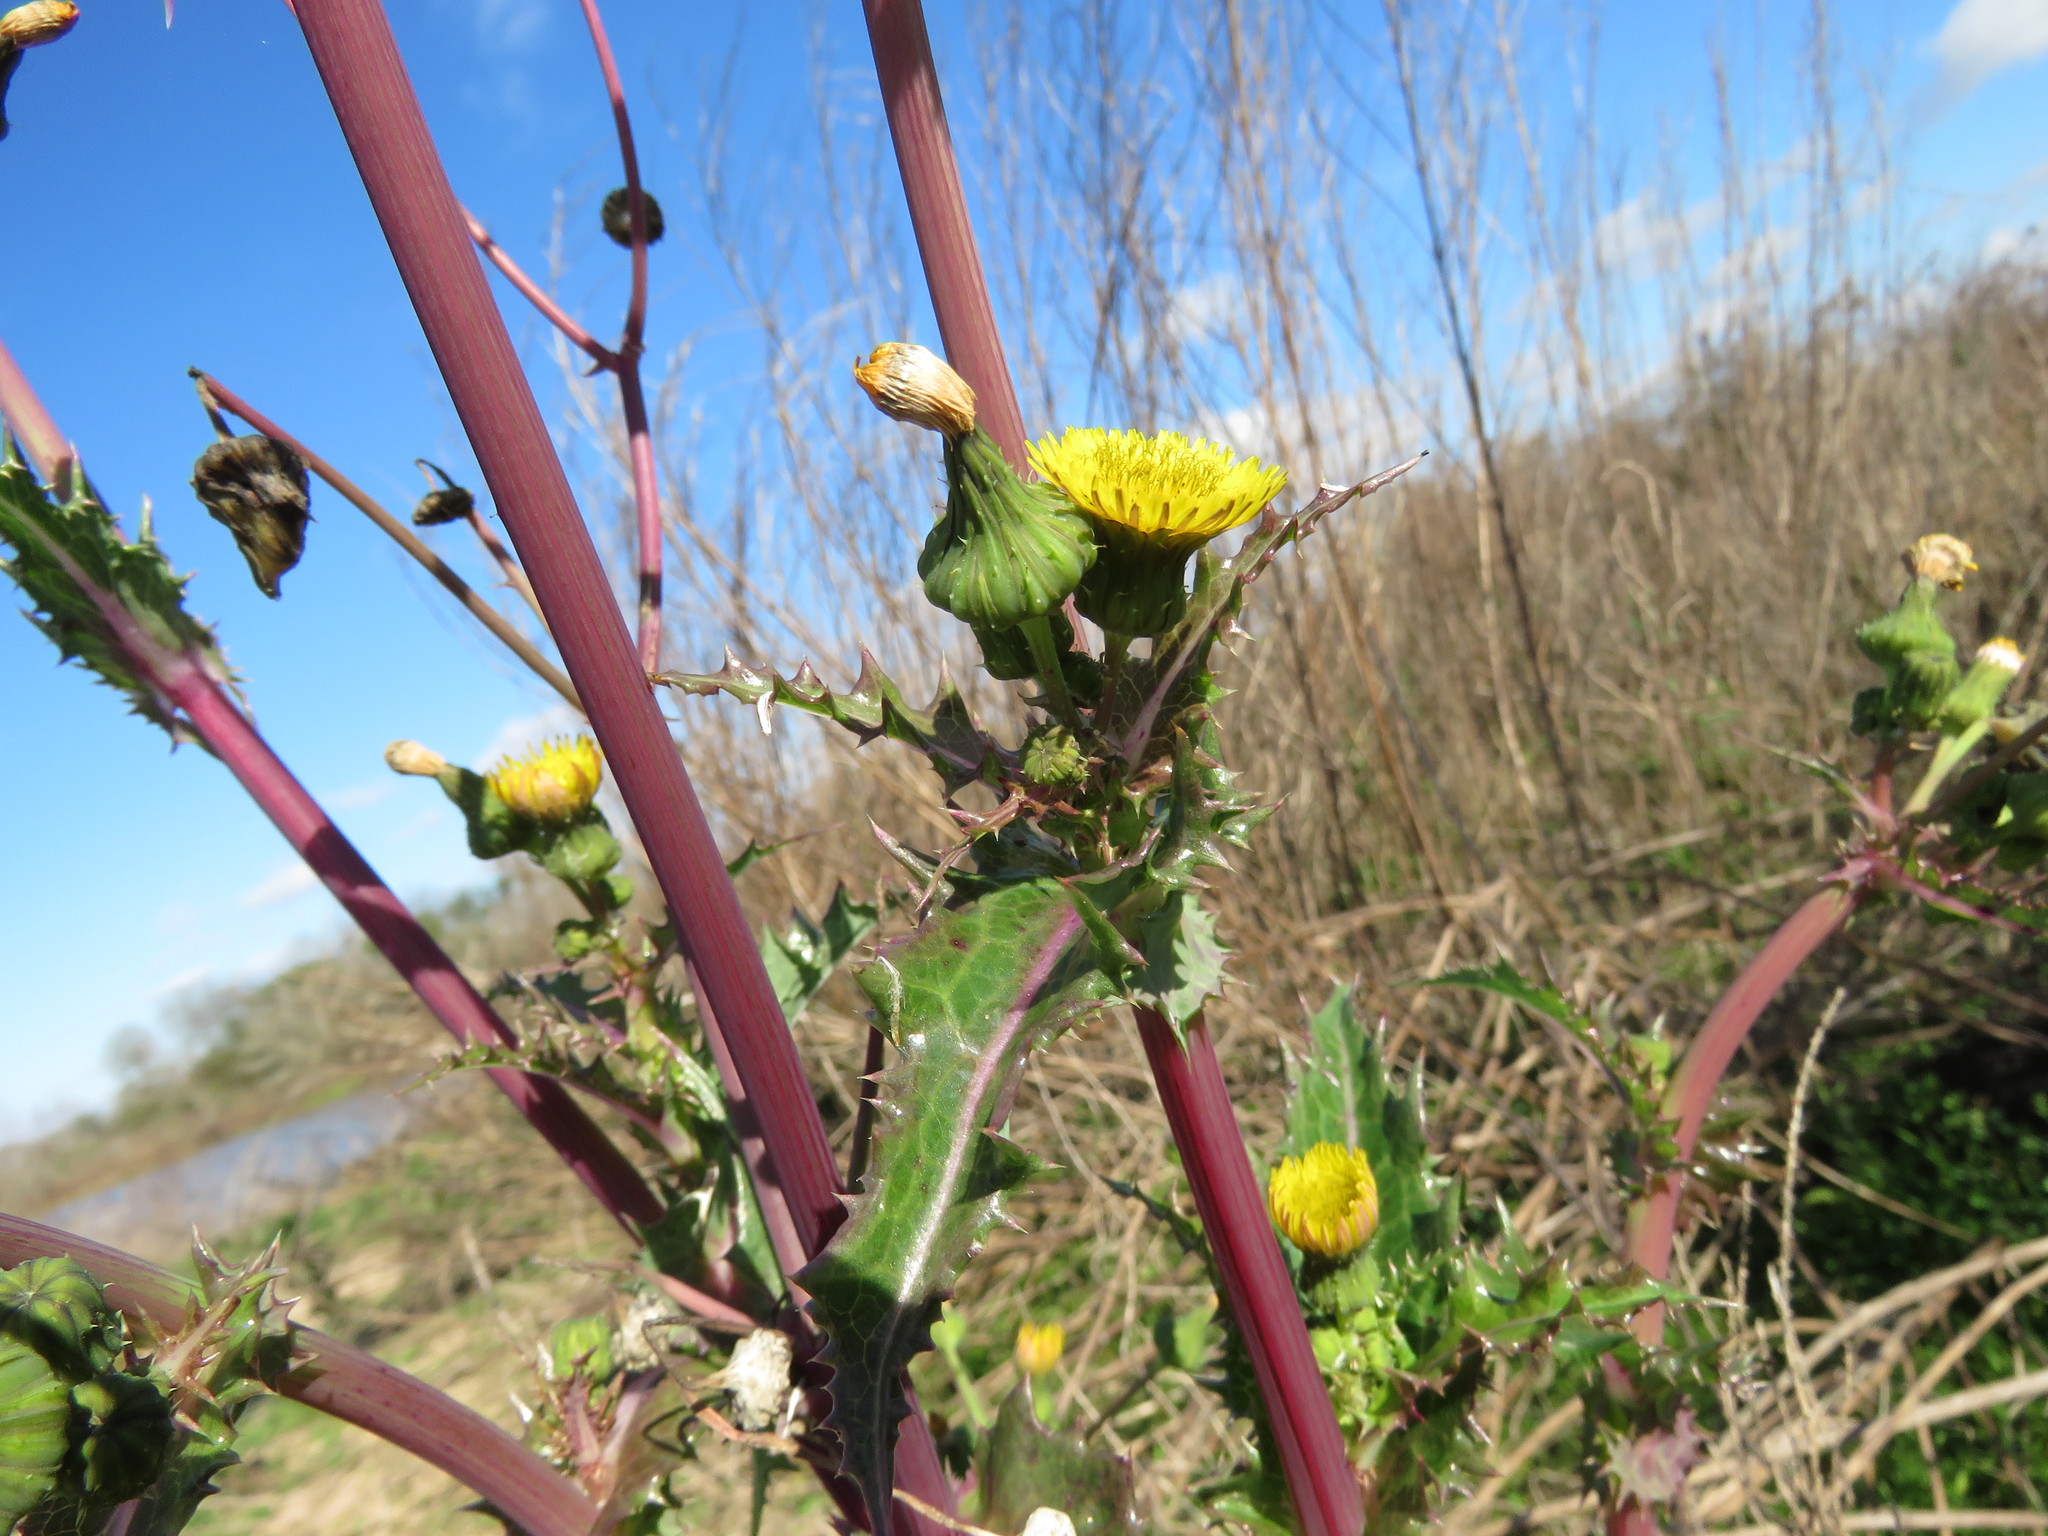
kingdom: Plantae
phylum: Tracheophyta
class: Magnoliopsida
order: Asterales
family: Asteraceae
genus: Sonchus
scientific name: Sonchus asper
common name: Prickly sow-thistle
